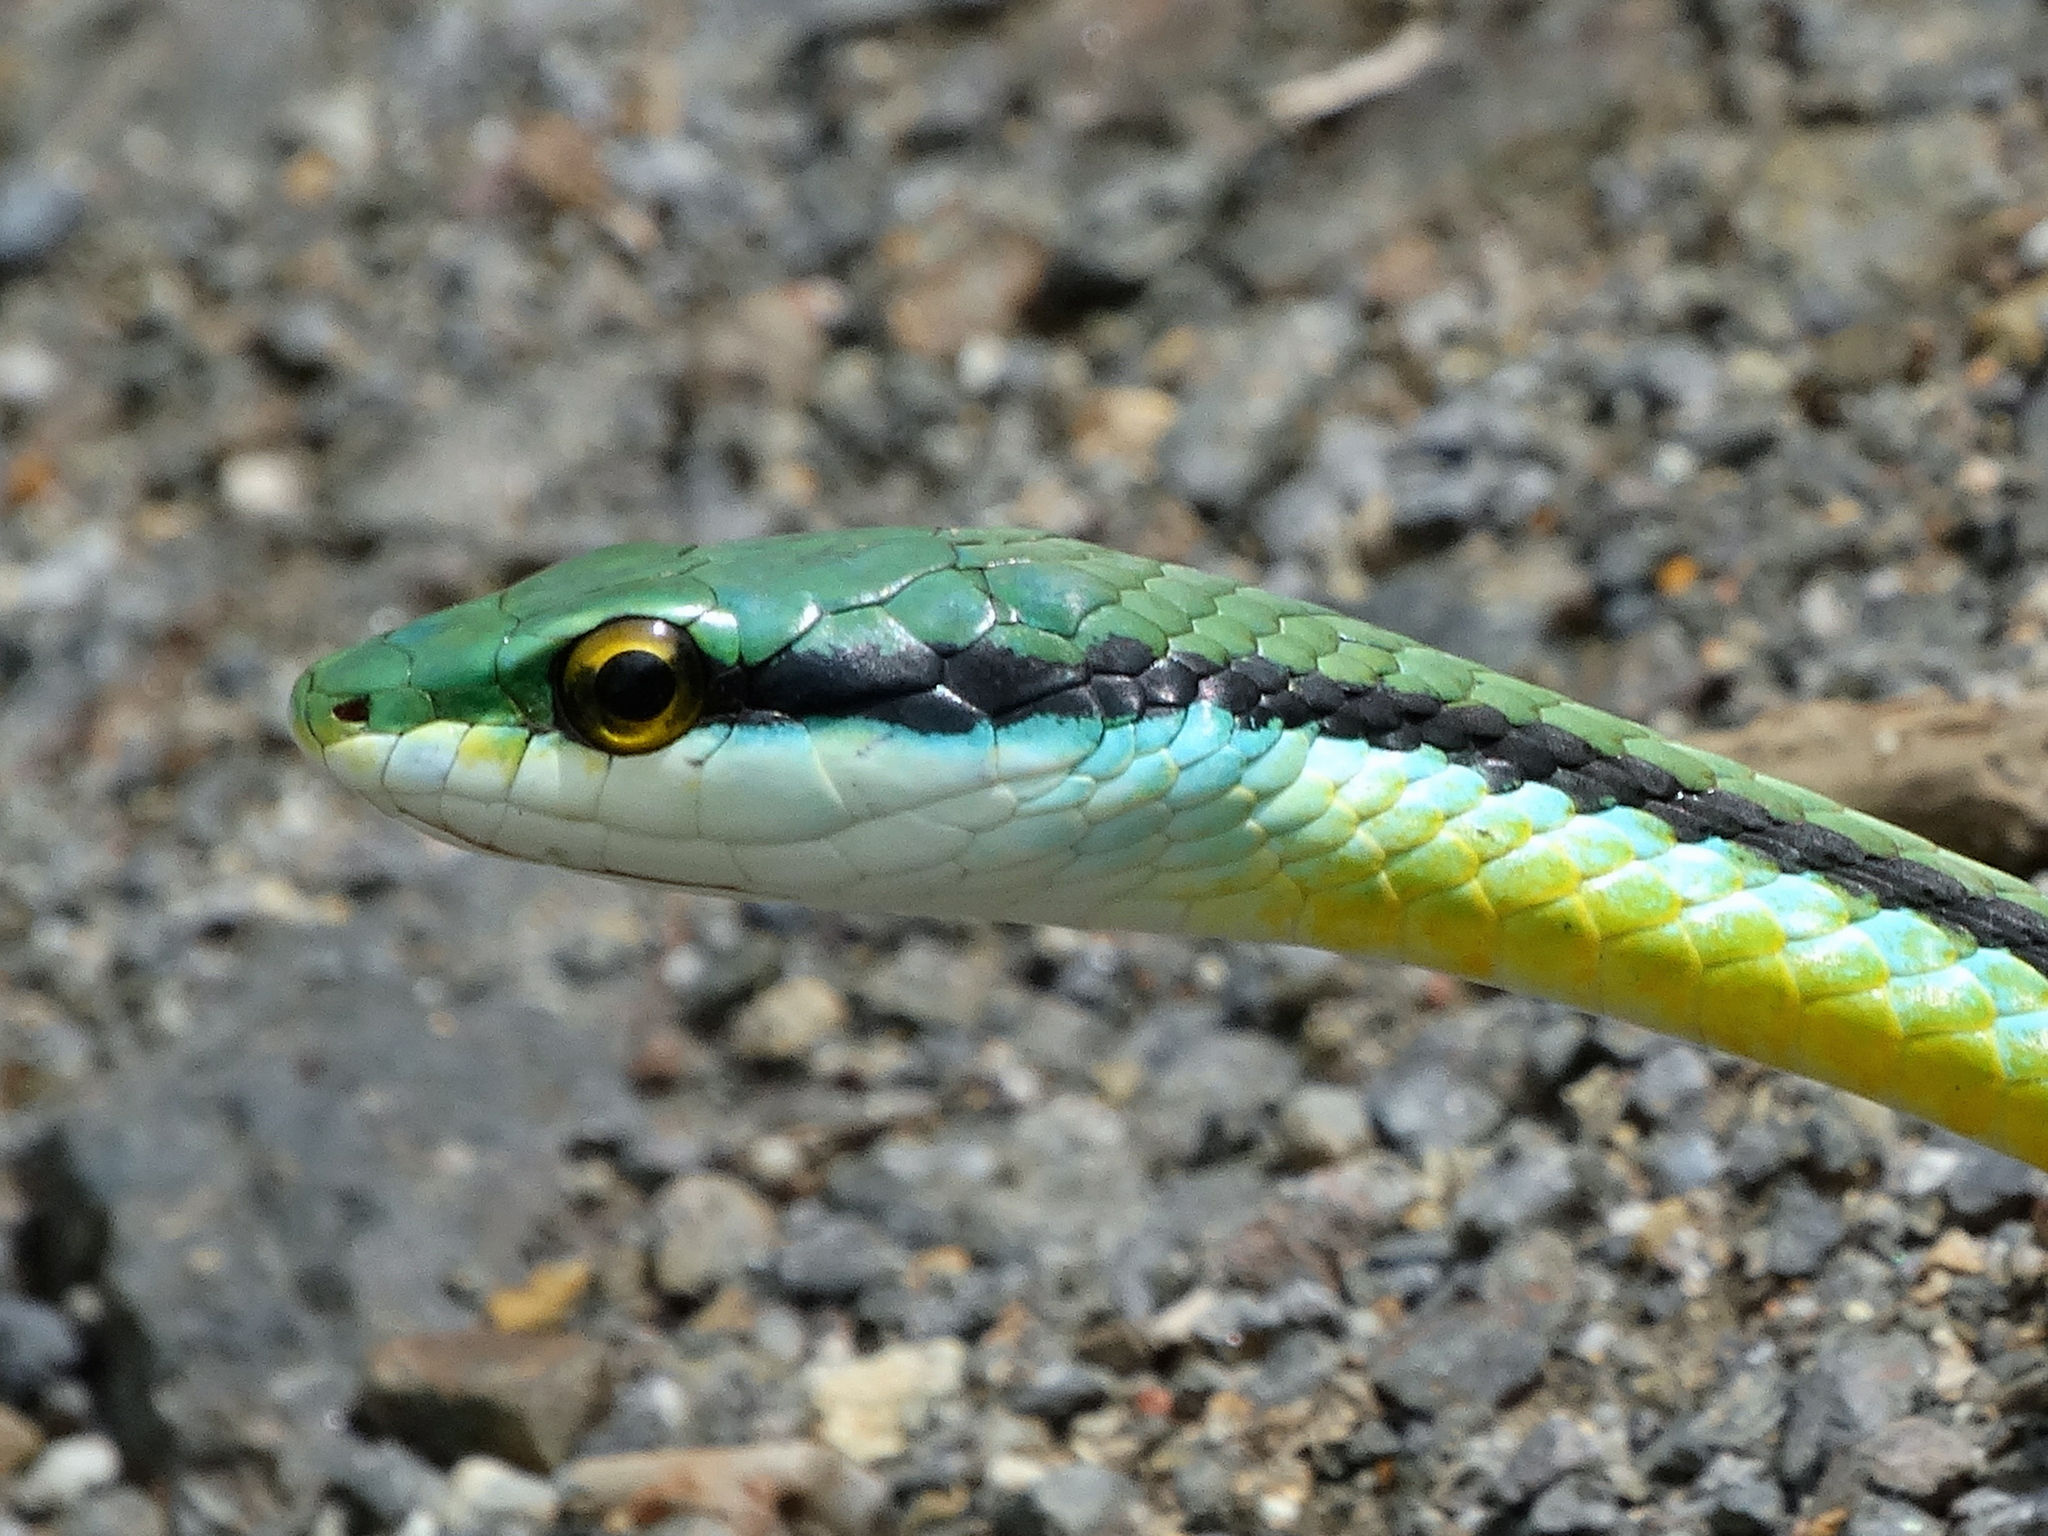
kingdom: Animalia
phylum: Chordata
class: Squamata
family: Colubridae
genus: Leptophis
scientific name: Leptophis diplotropis
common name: Pacific coast parrot snake
